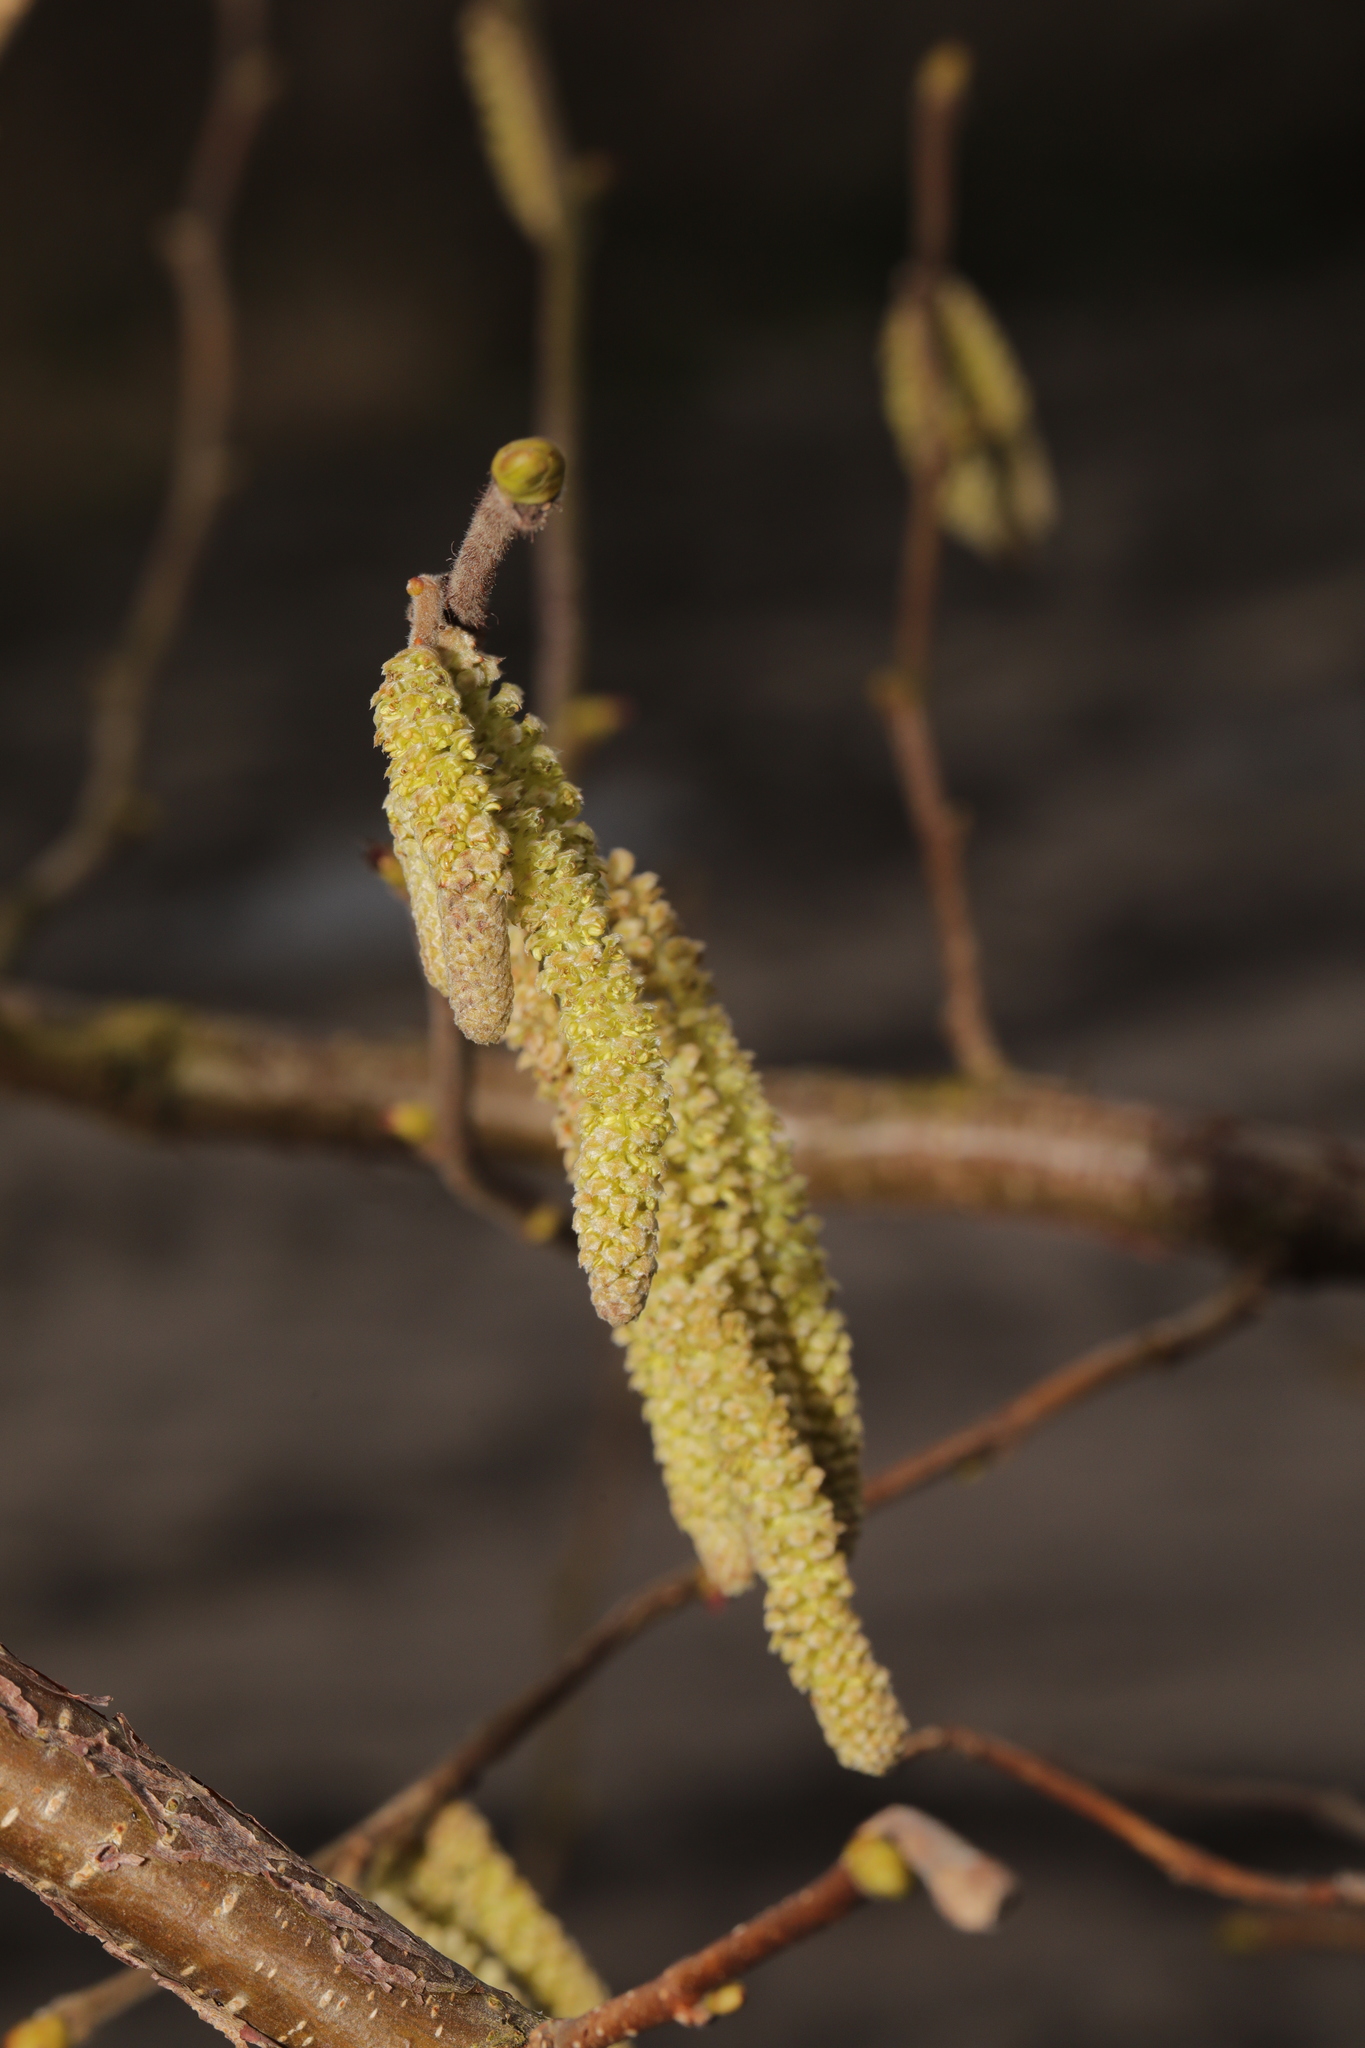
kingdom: Plantae
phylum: Tracheophyta
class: Magnoliopsida
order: Fagales
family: Betulaceae
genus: Corylus
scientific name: Corylus avellana
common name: European hazel
